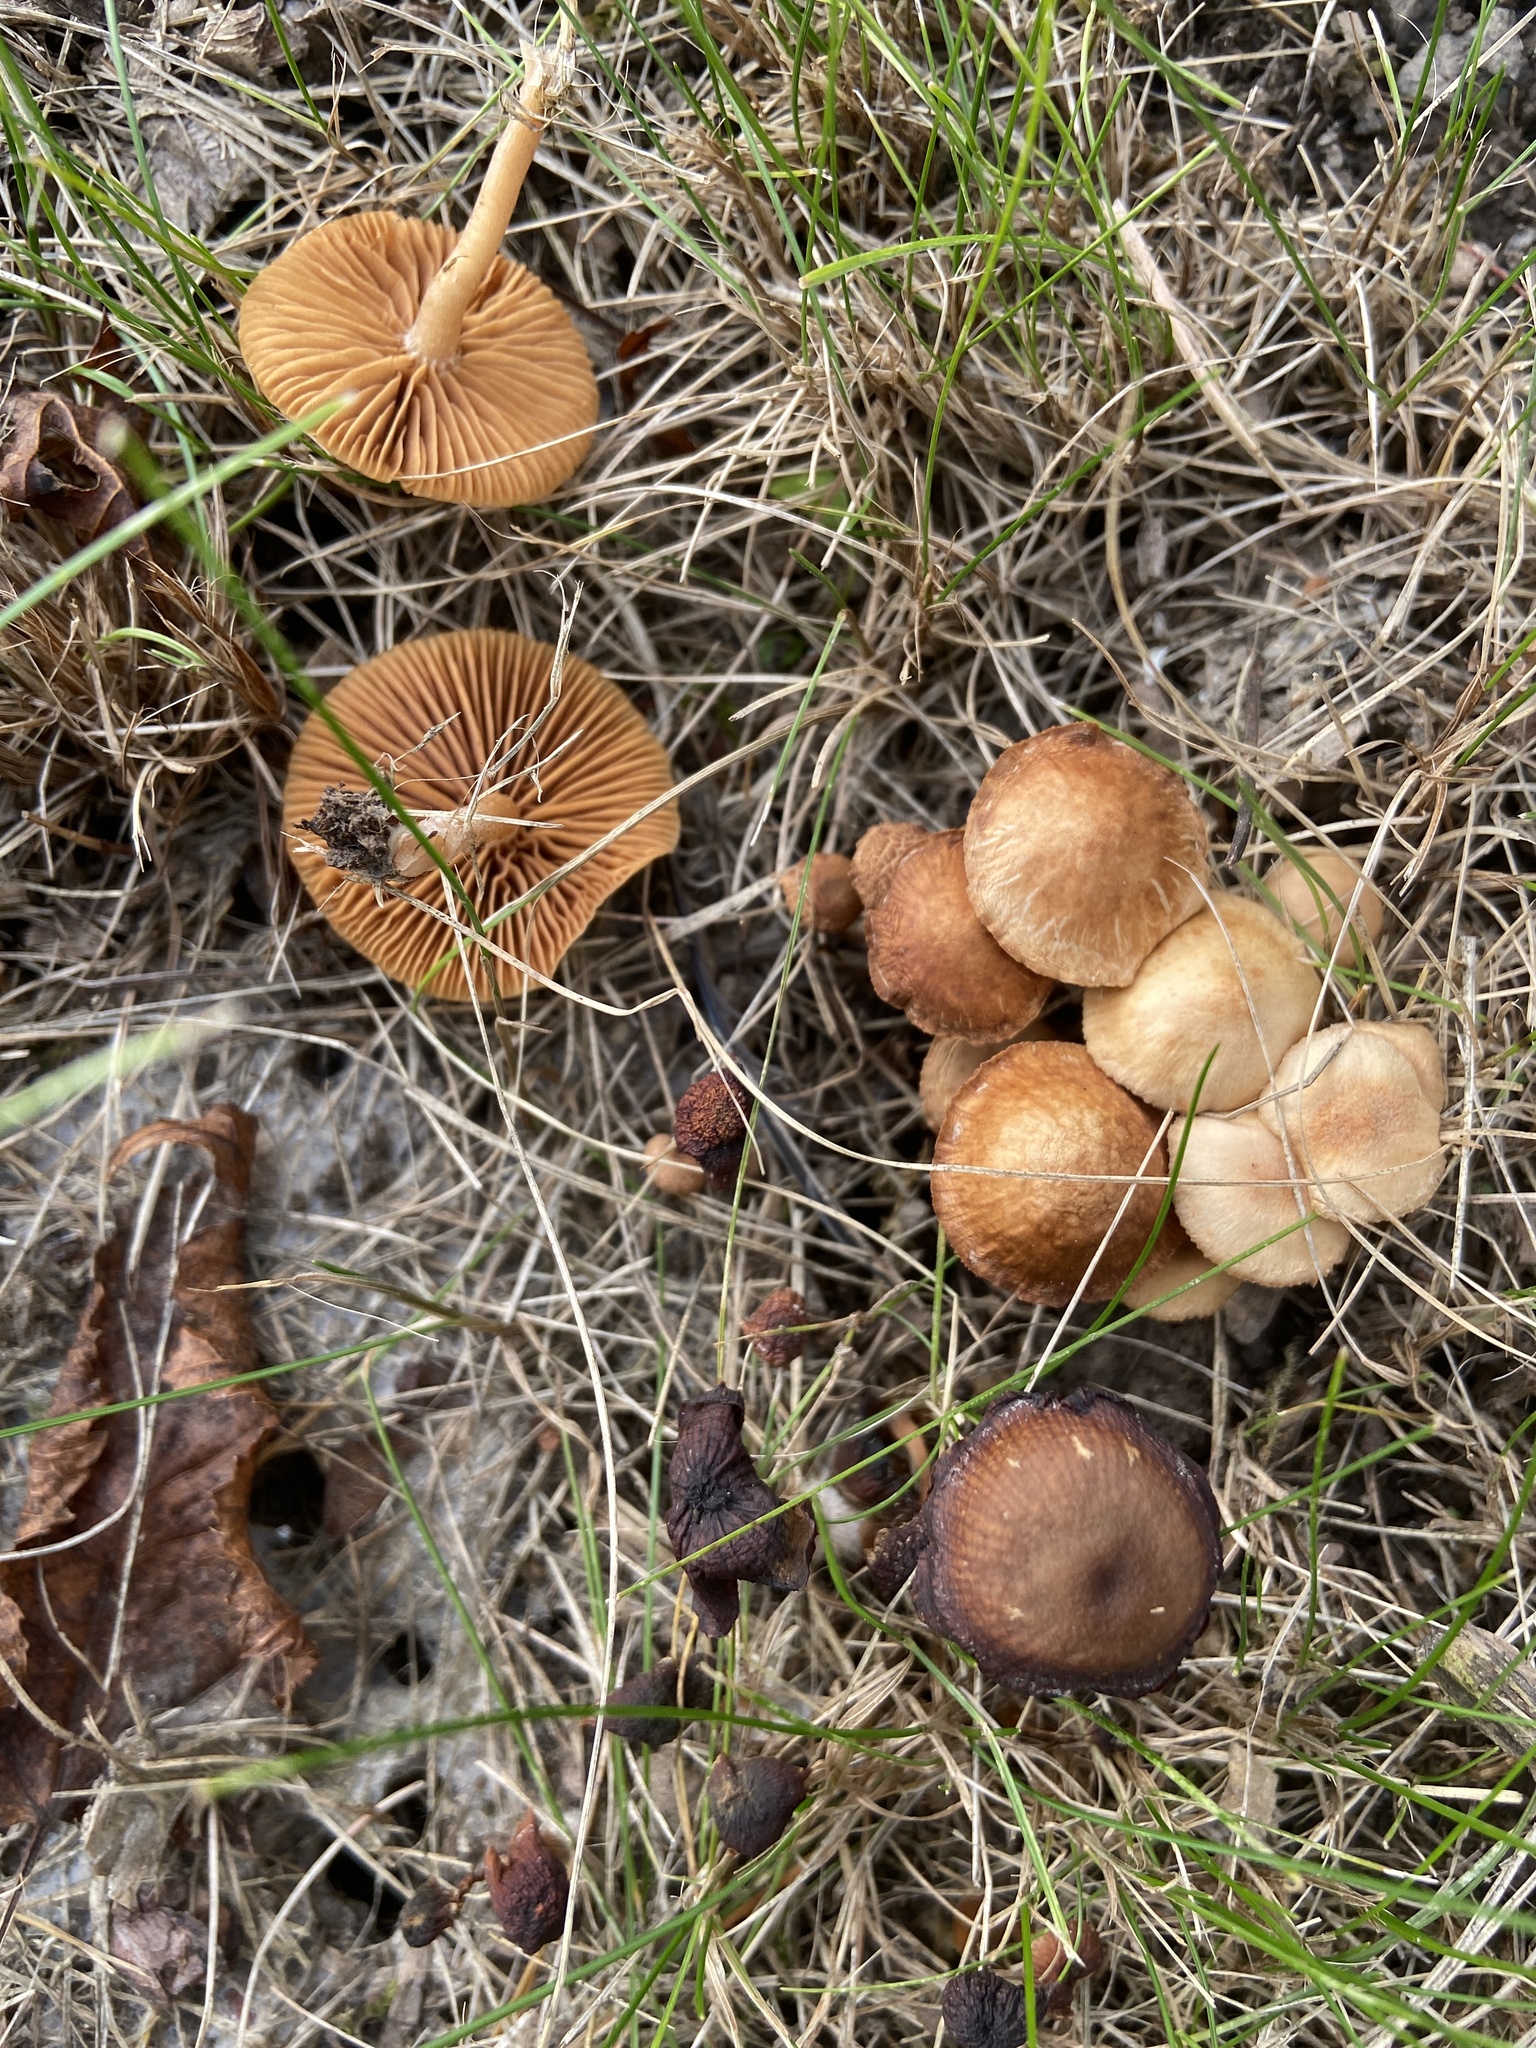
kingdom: Fungi
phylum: Basidiomycota
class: Agaricomycetes
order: Agaricales
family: Tubariaceae
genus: Tubaria
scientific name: Tubaria furfuracea
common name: Scurfy twiglet
